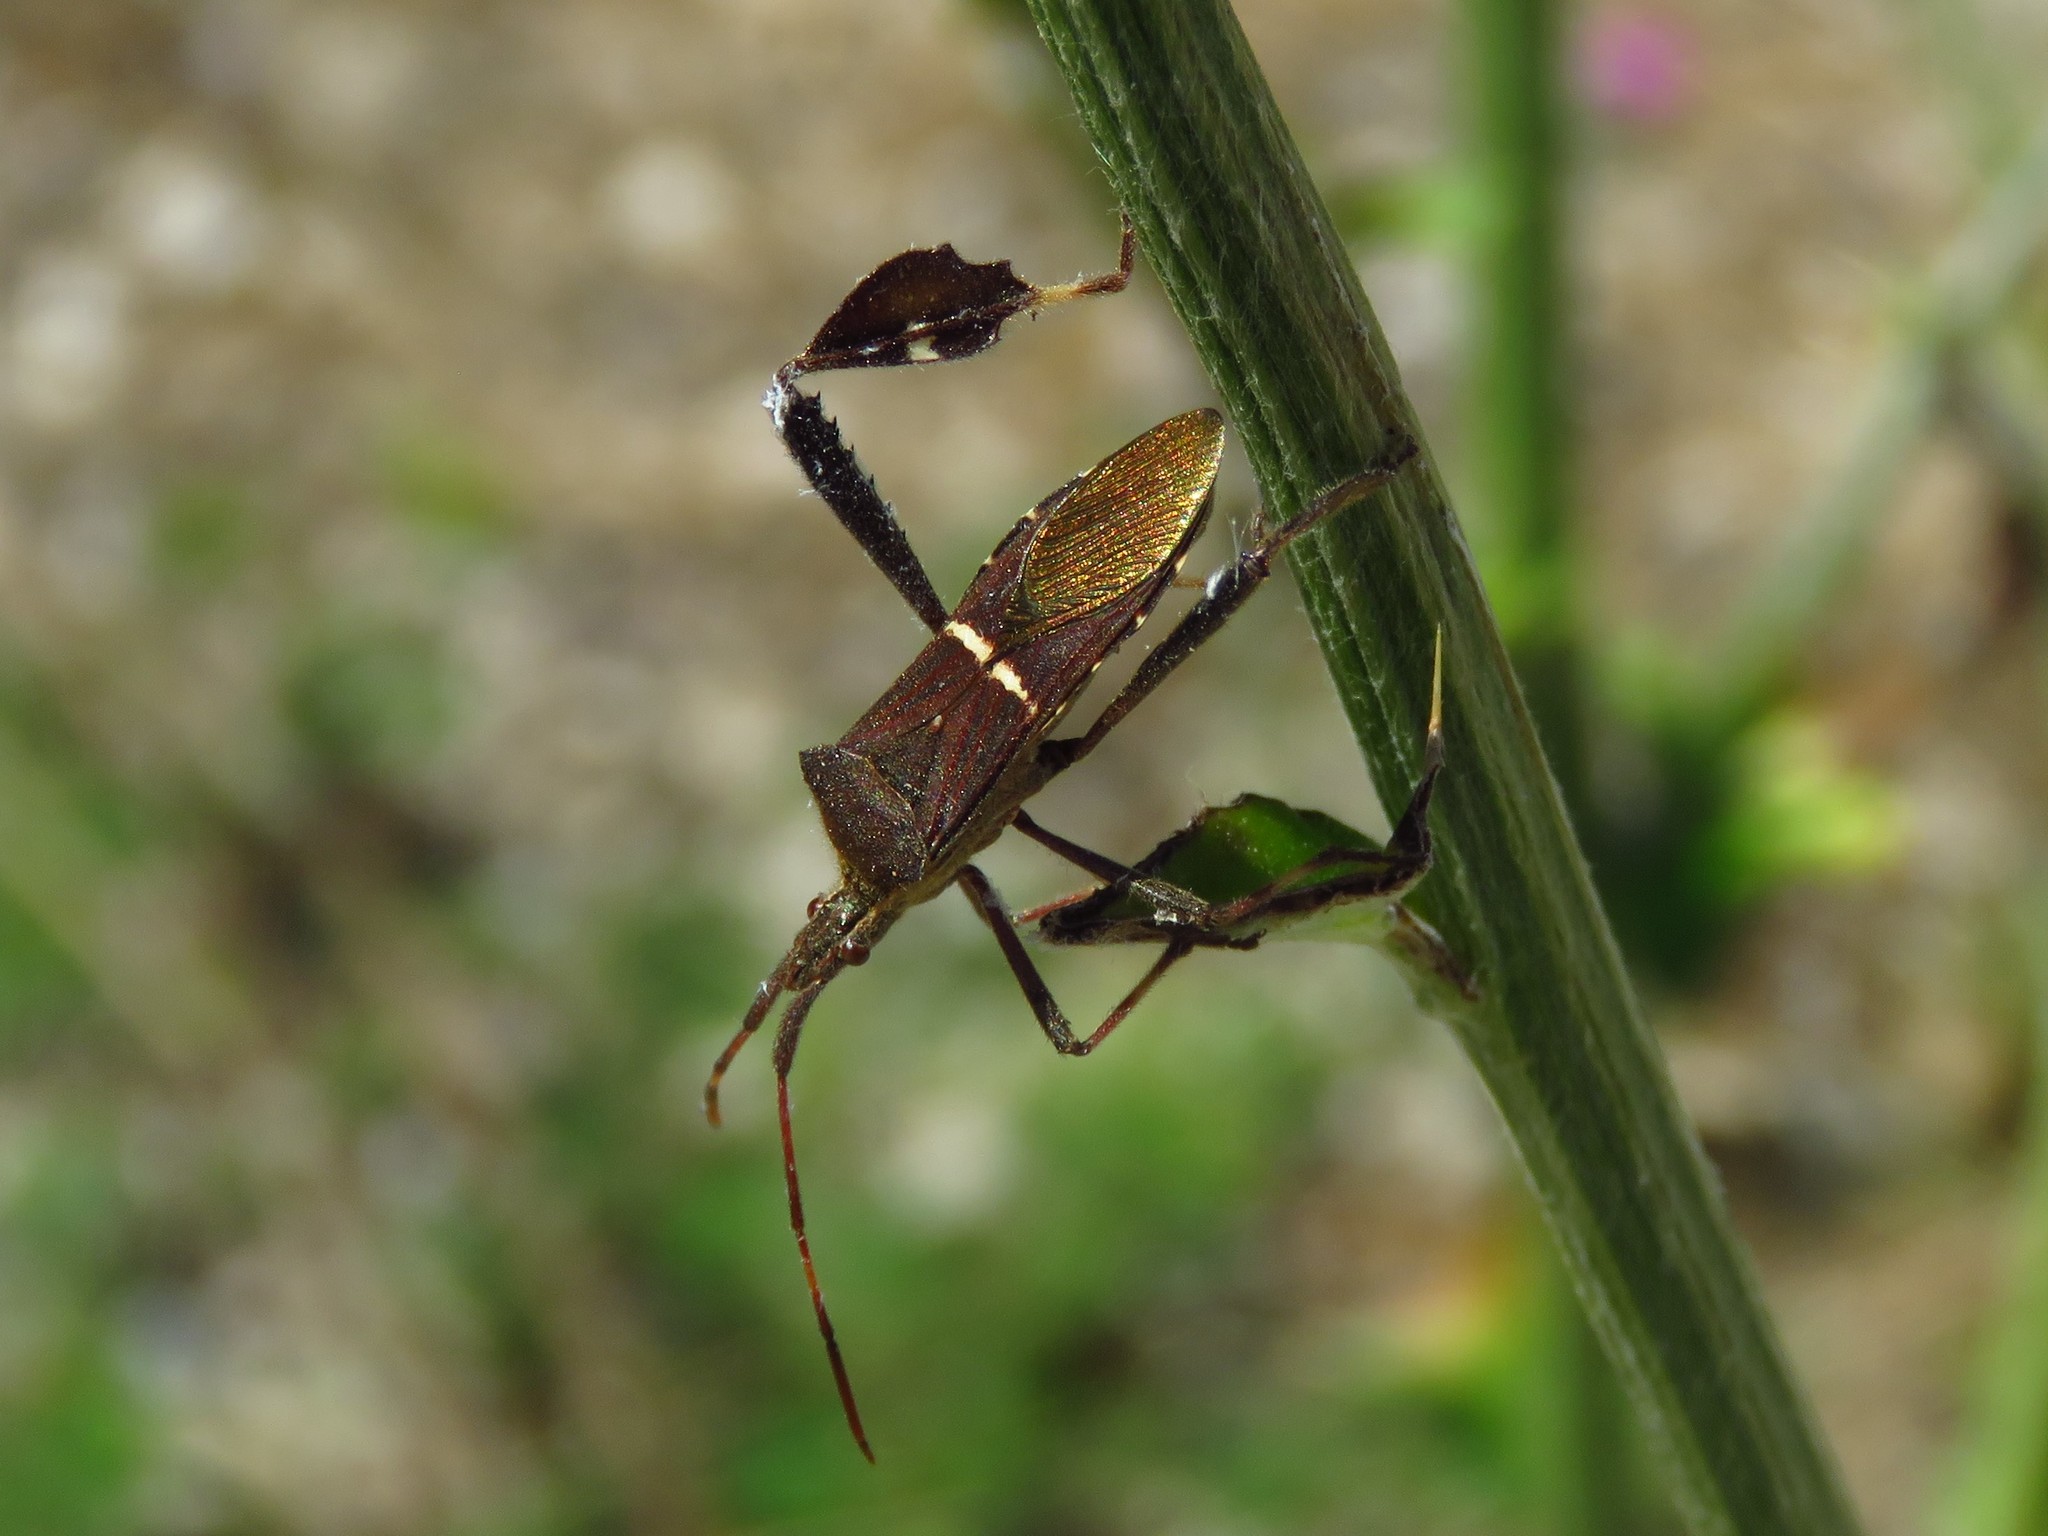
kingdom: Animalia
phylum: Arthropoda
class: Insecta
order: Hemiptera
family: Coreidae
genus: Leptoglossus
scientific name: Leptoglossus phyllopus
